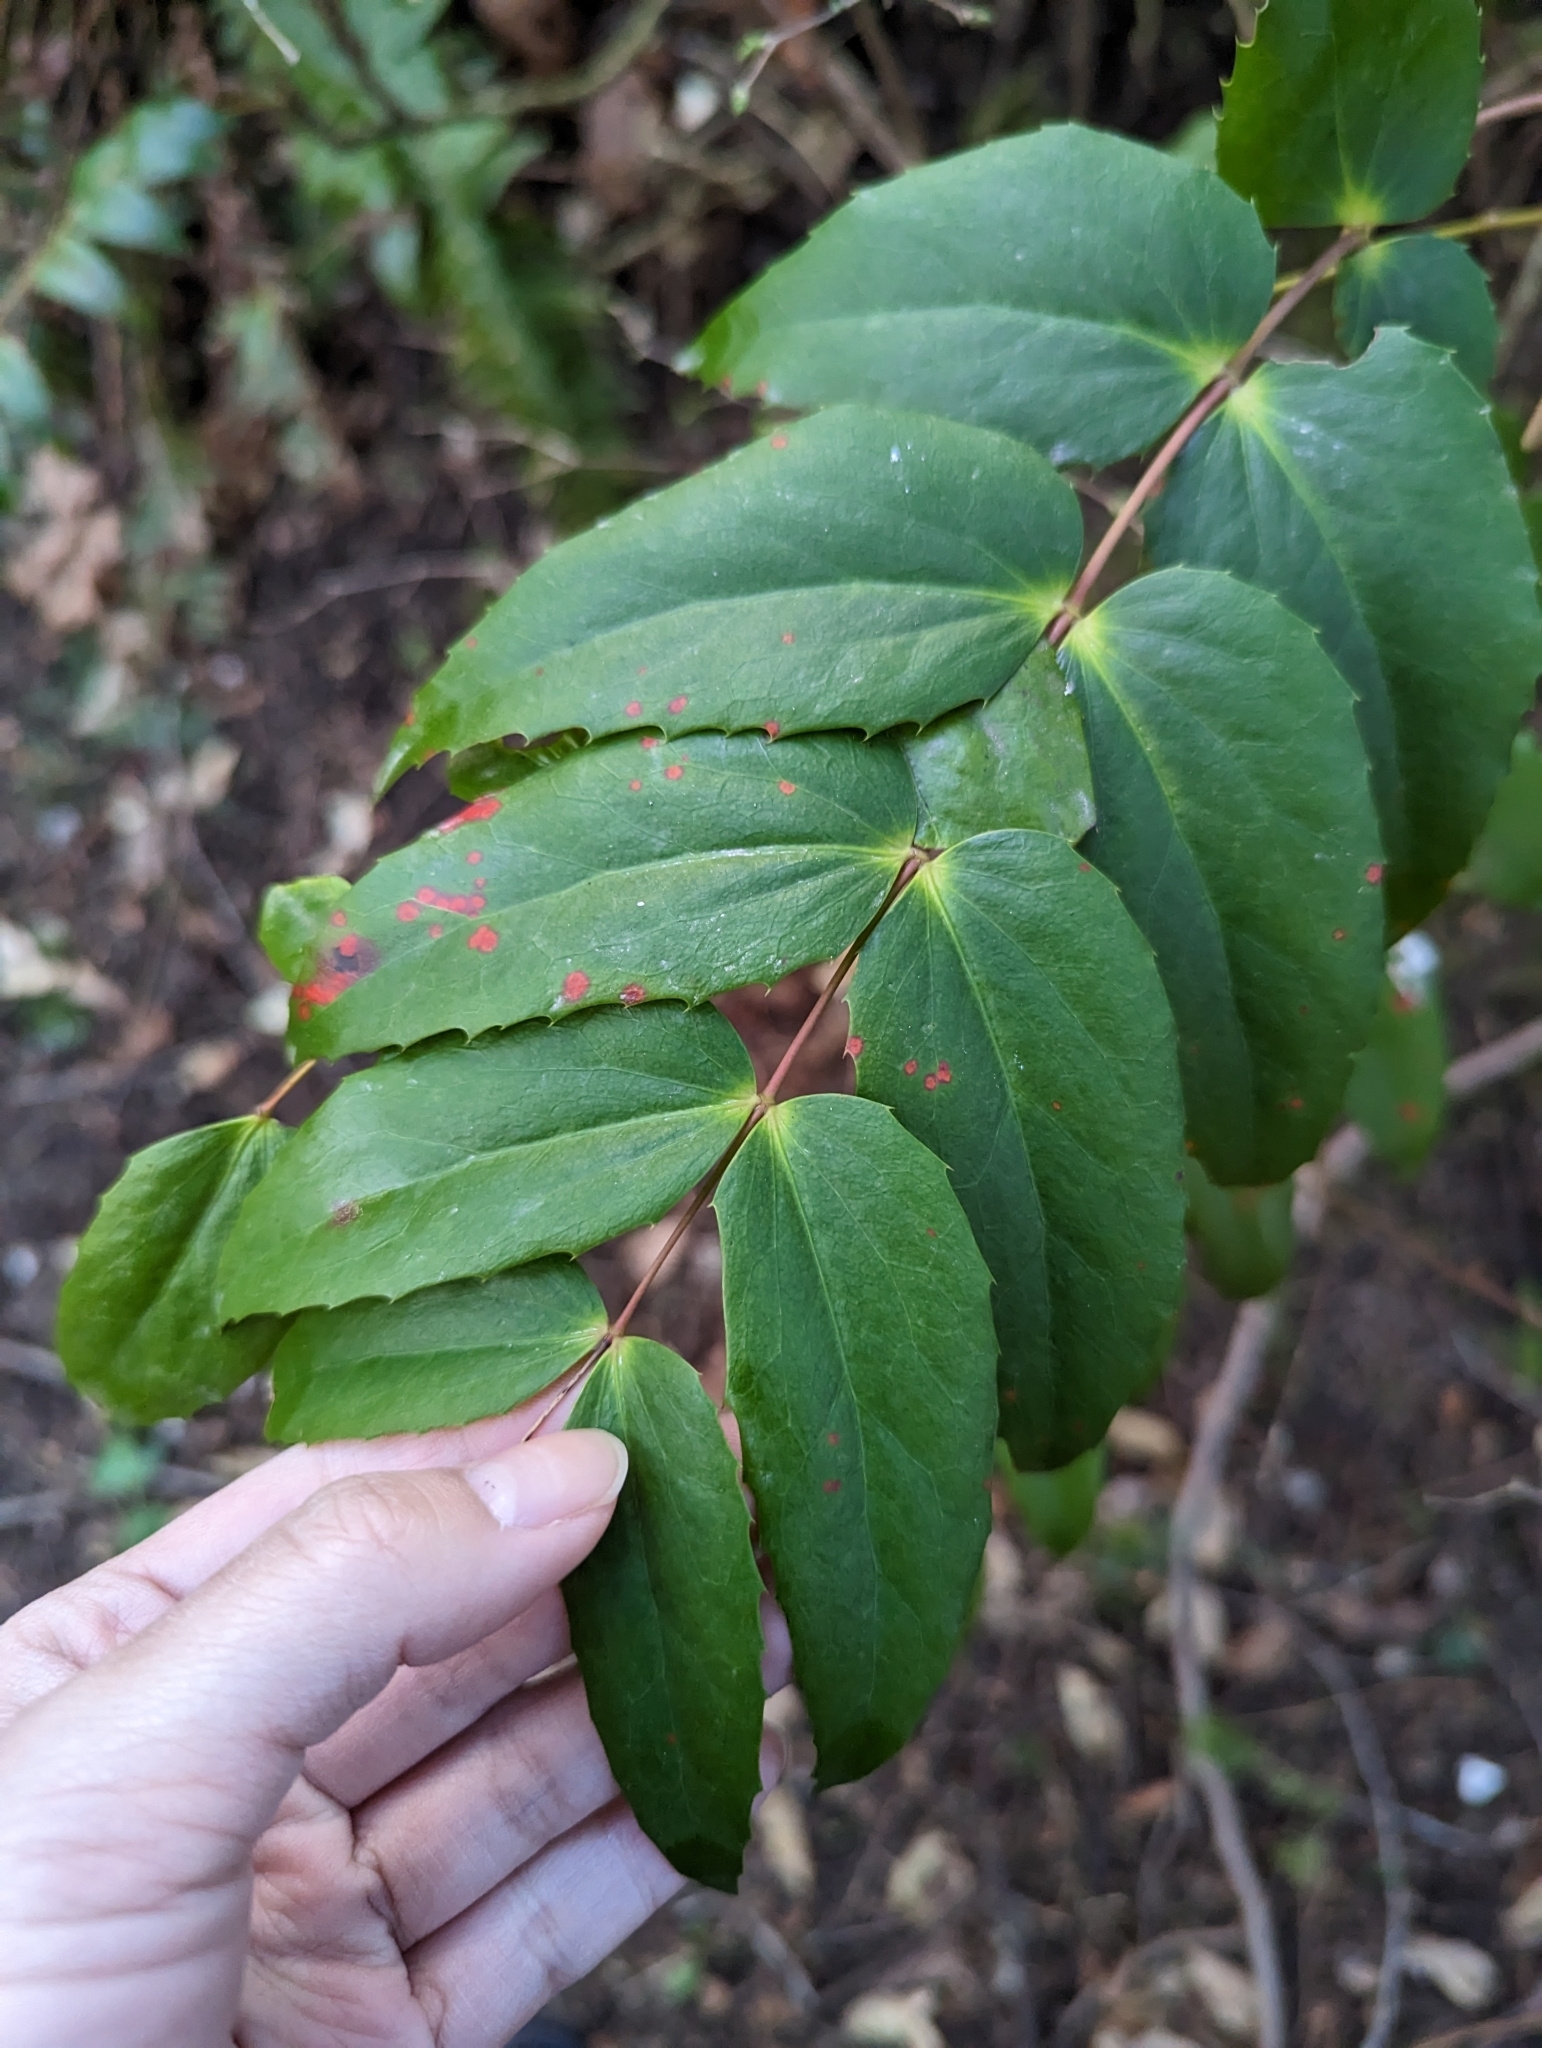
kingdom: Plantae
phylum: Tracheophyta
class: Magnoliopsida
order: Ranunculales
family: Berberidaceae
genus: Mahonia
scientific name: Mahonia nervosa
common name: Cascade oregon-grape
